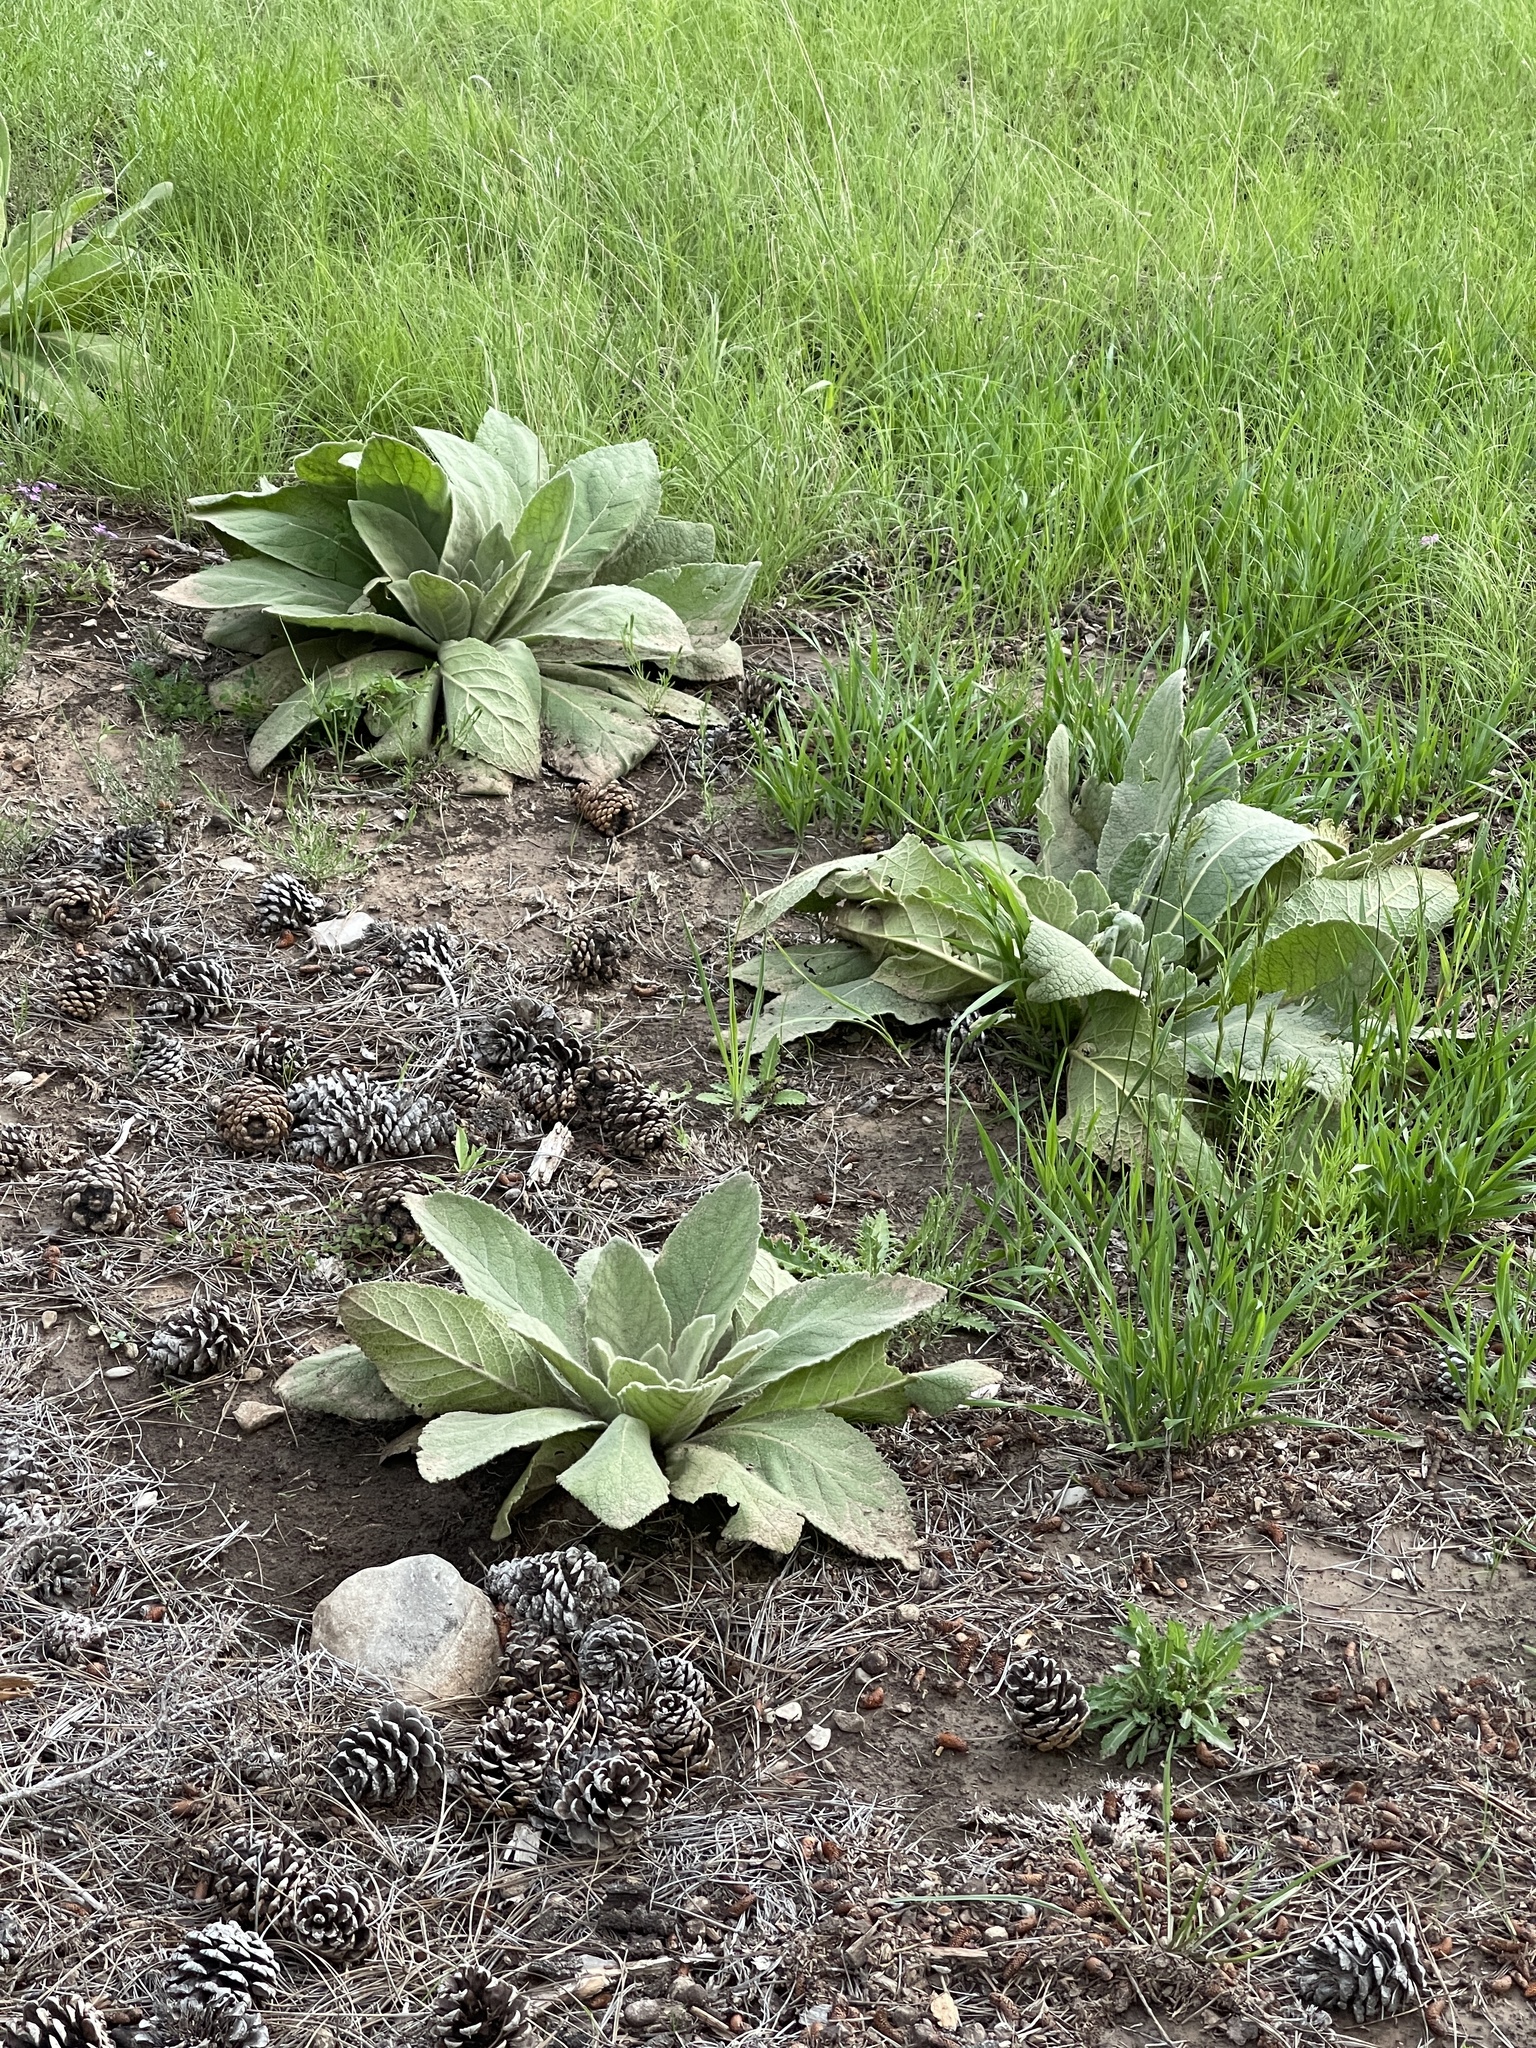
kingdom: Plantae
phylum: Tracheophyta
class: Magnoliopsida
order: Lamiales
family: Scrophulariaceae
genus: Verbascum
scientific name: Verbascum thapsus
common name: Common mullein
